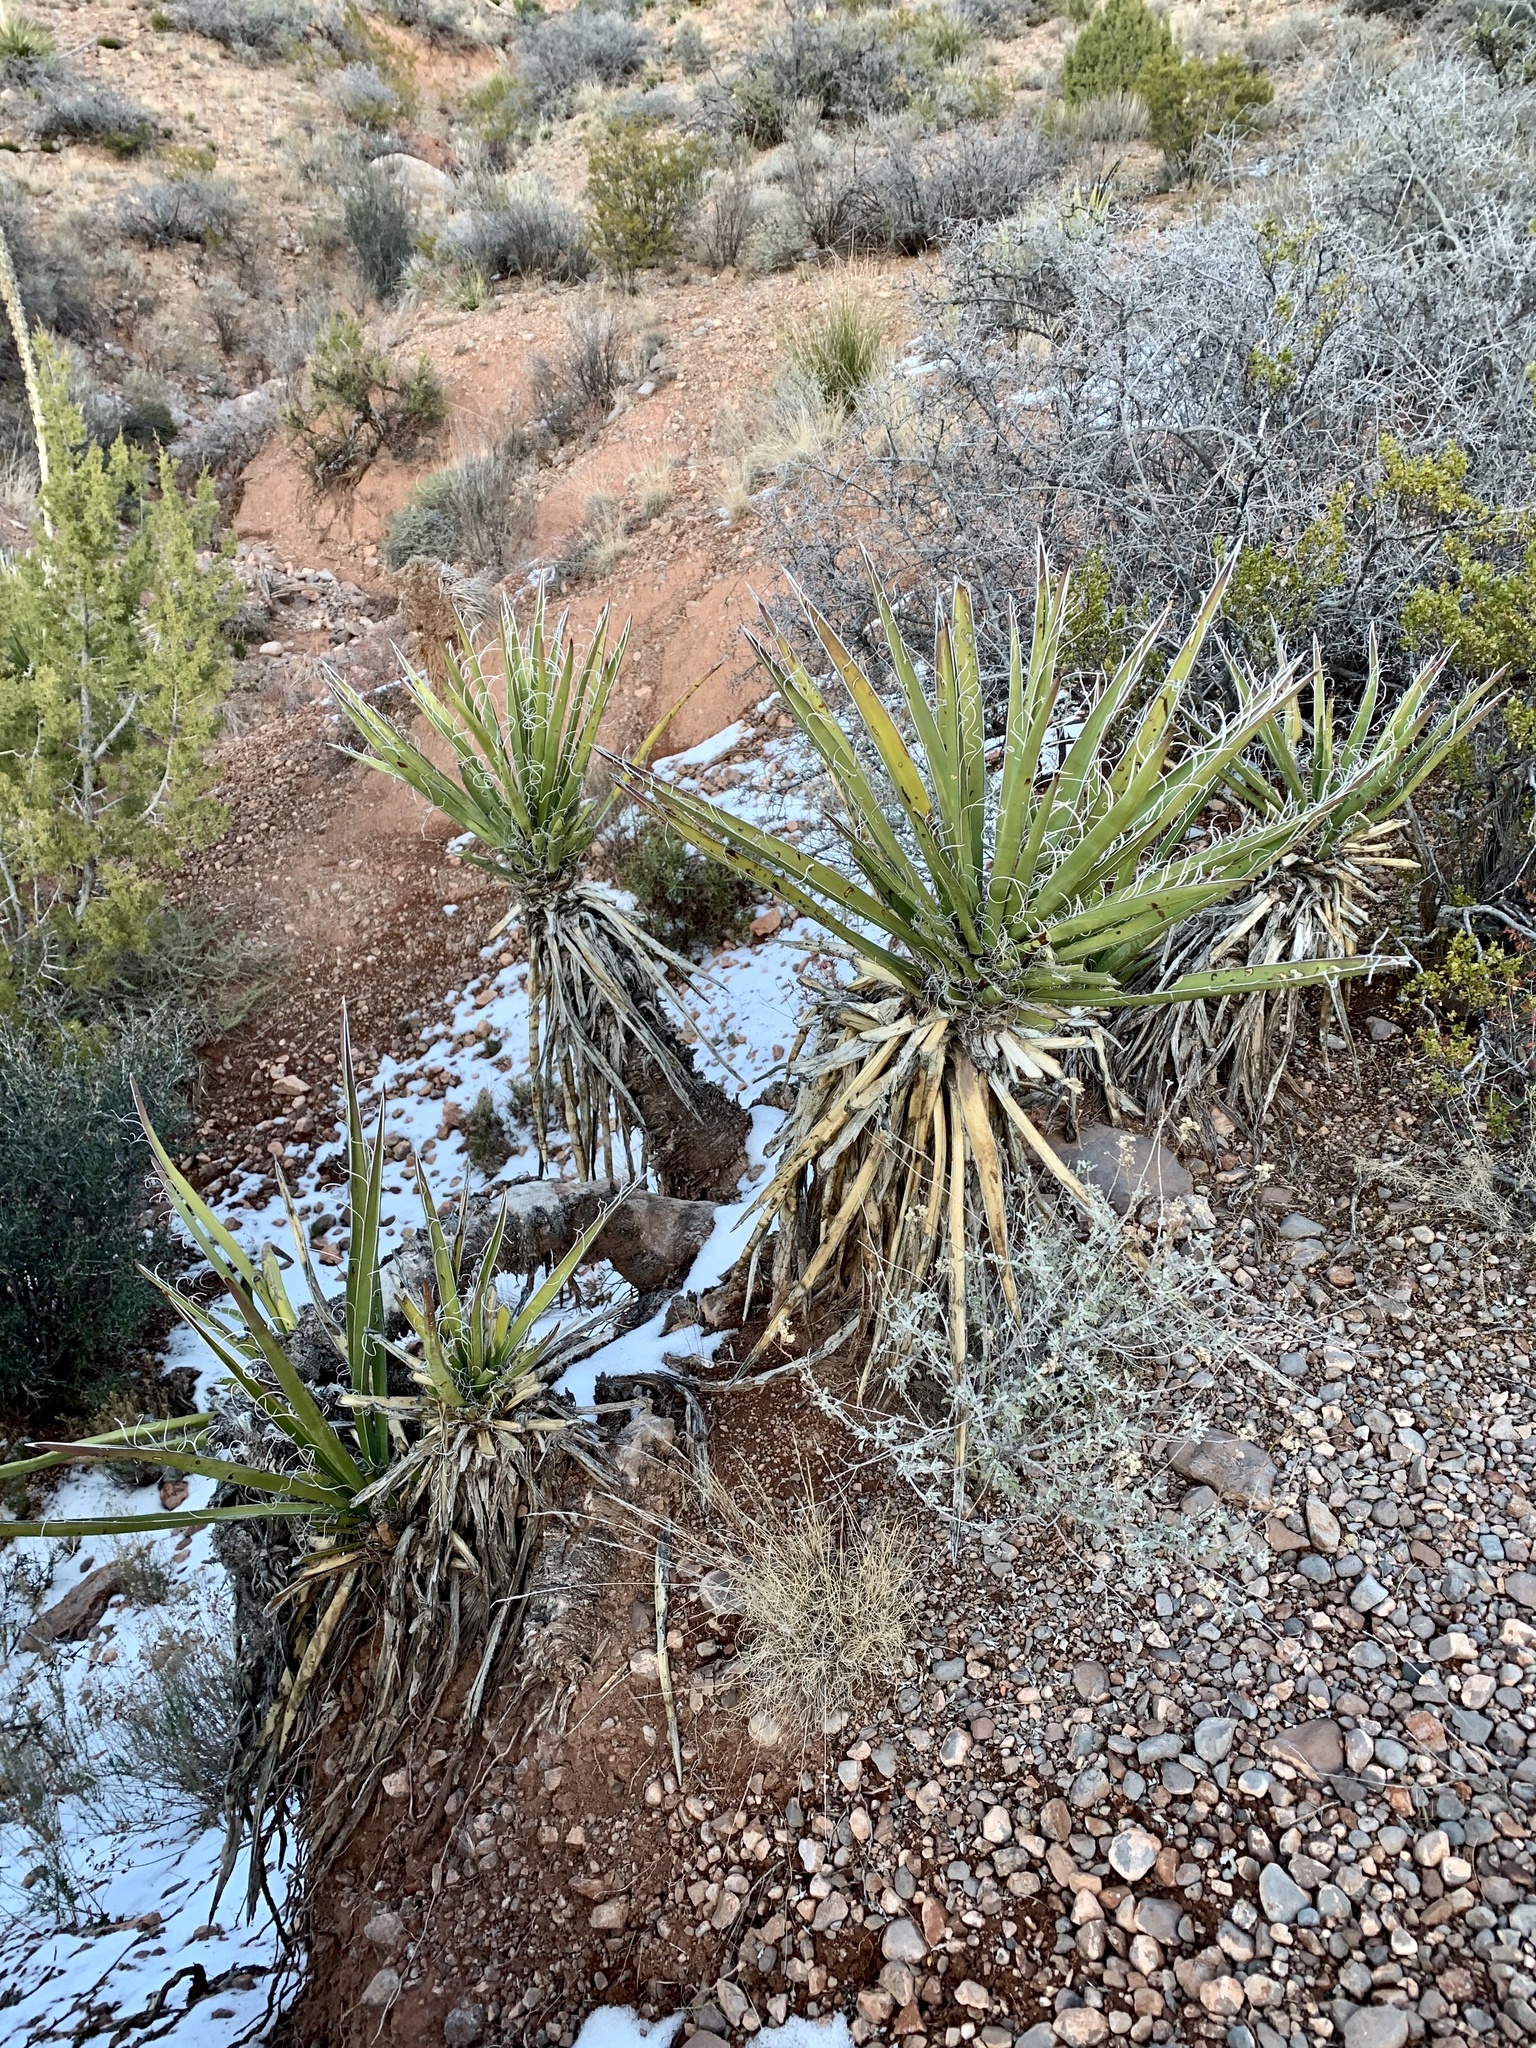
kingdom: Plantae
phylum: Tracheophyta
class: Liliopsida
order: Asparagales
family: Asparagaceae
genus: Yucca
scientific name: Yucca baccata
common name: Banana yucca
